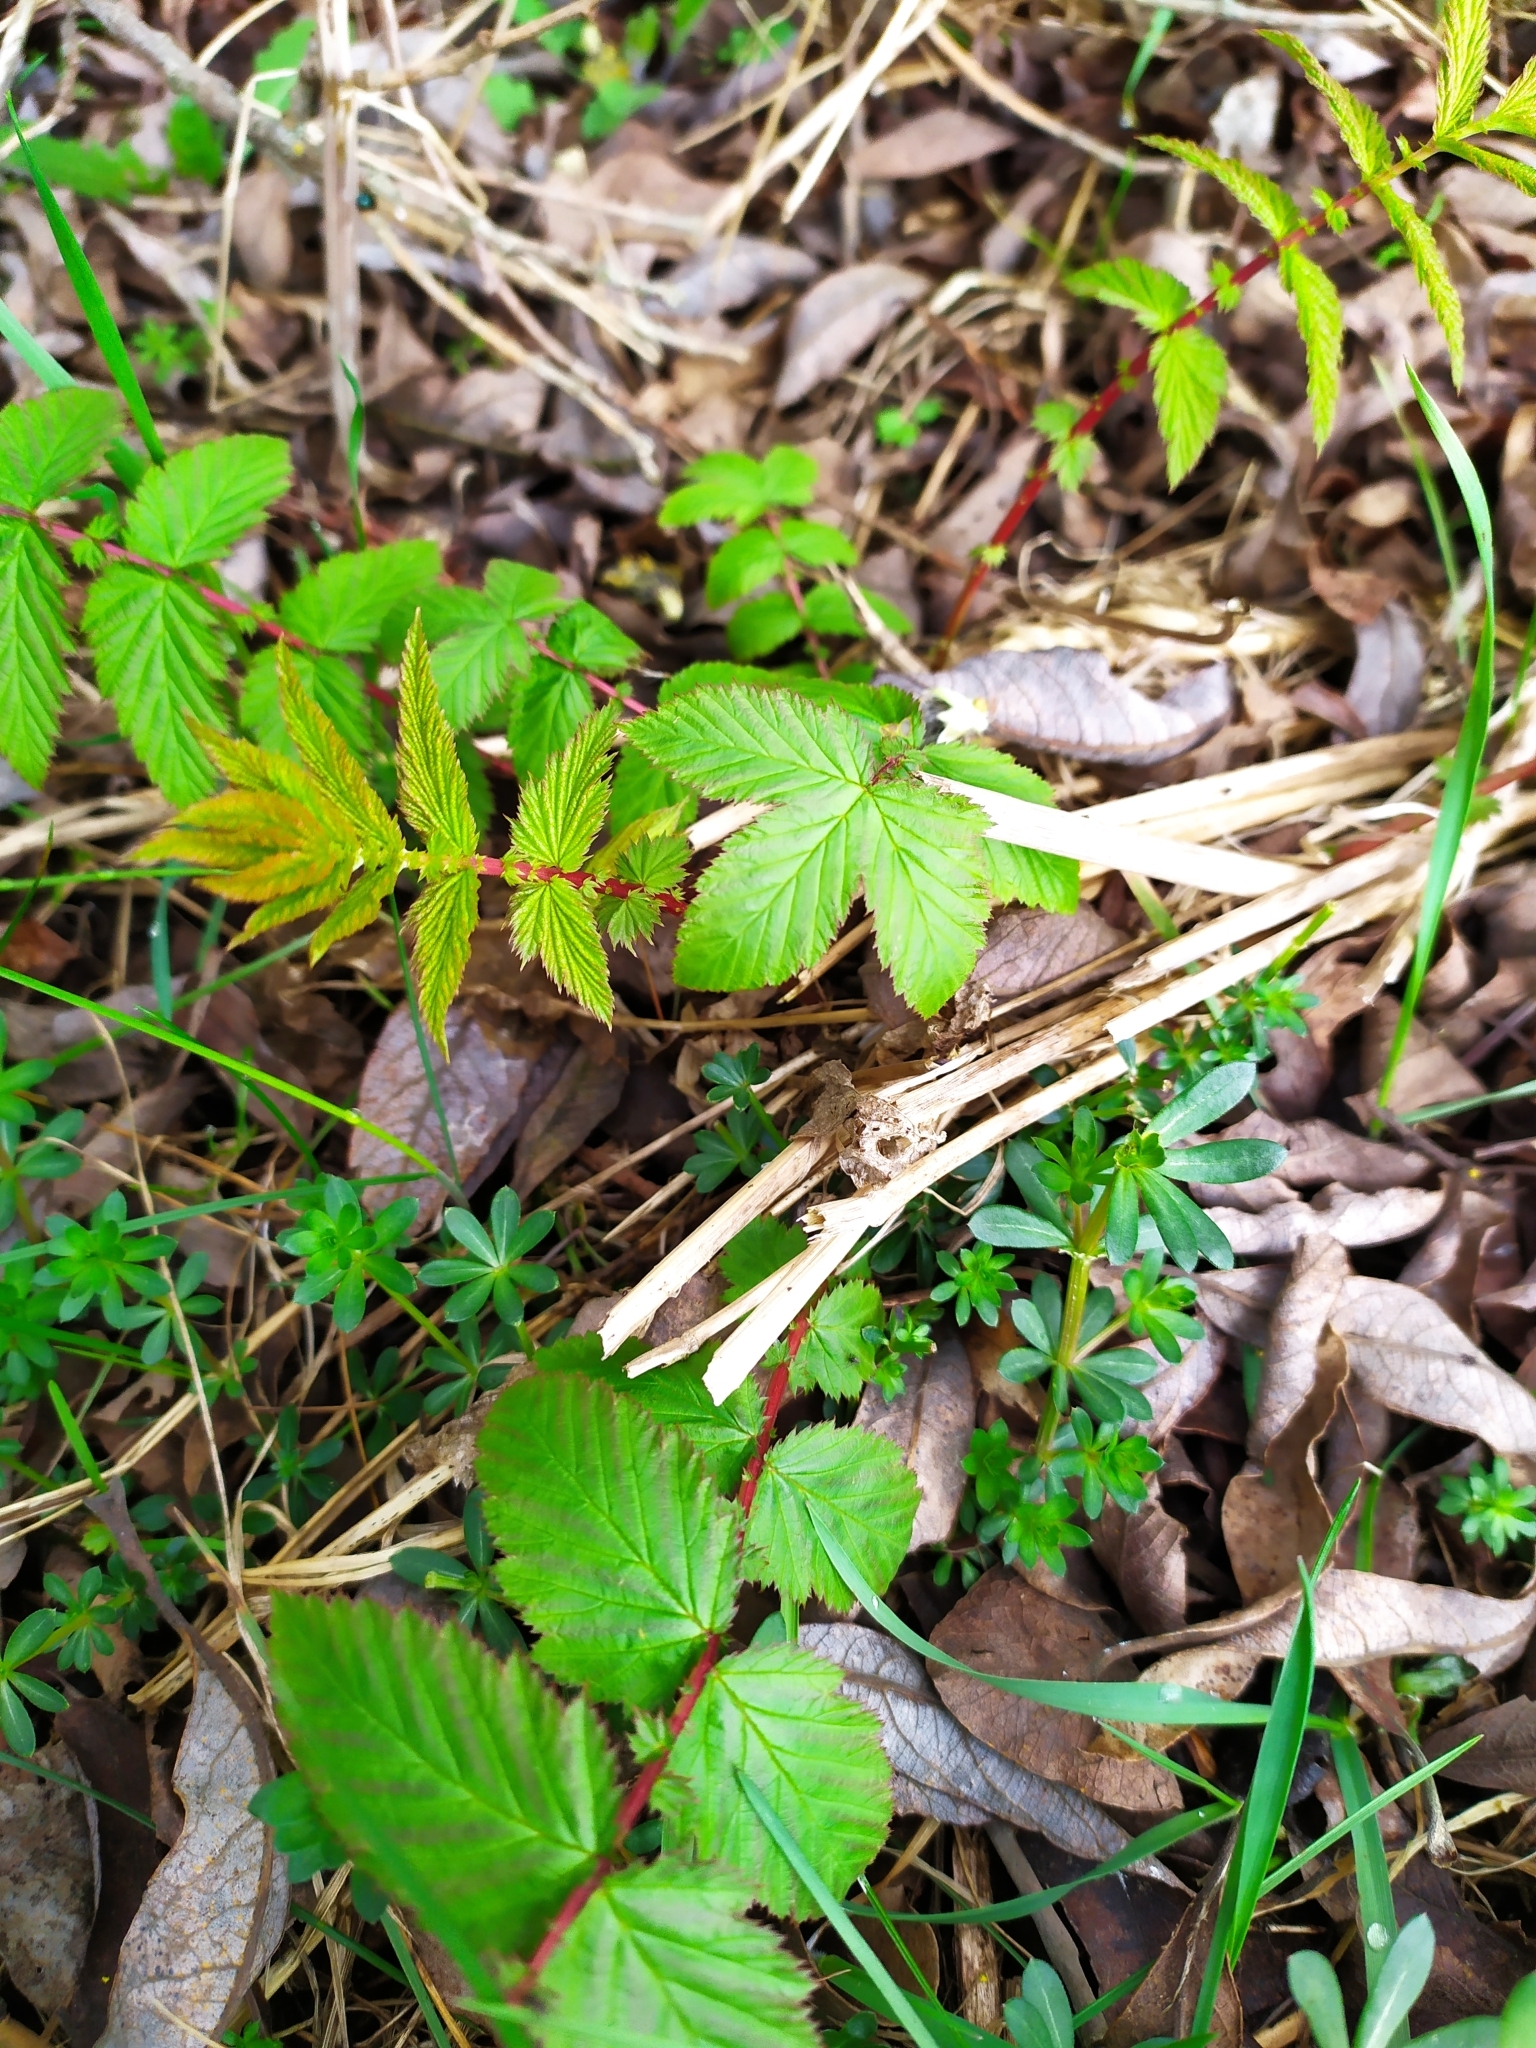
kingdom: Plantae
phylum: Tracheophyta
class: Magnoliopsida
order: Rosales
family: Rosaceae
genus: Filipendula
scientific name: Filipendula ulmaria
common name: Meadowsweet
